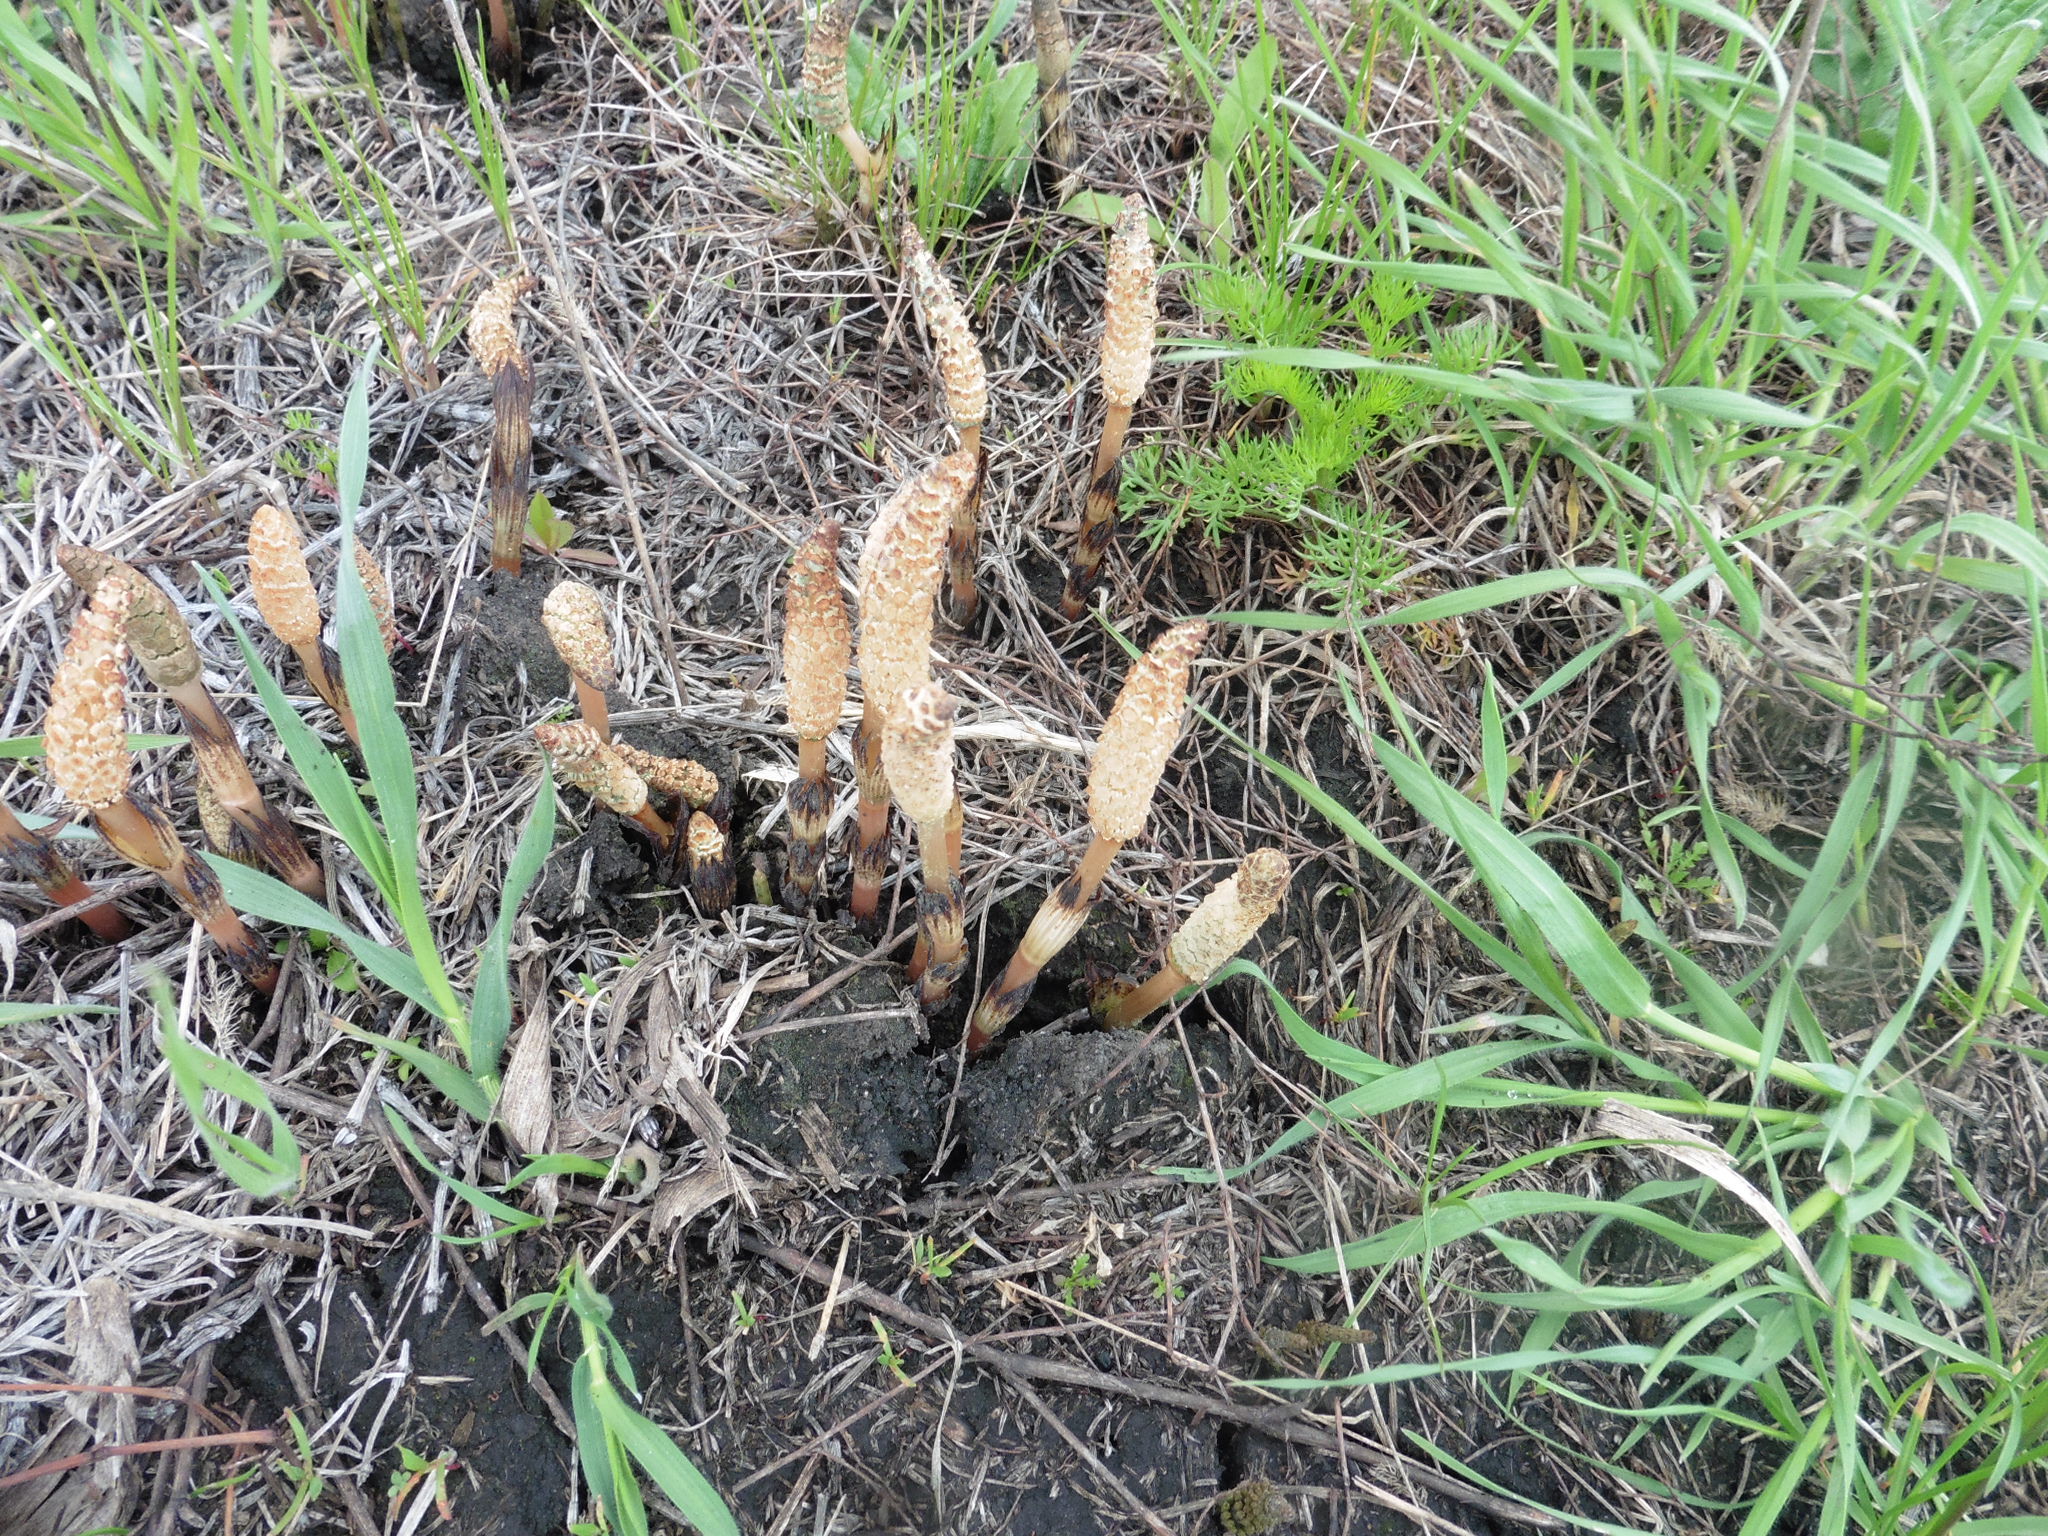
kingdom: Plantae
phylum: Tracheophyta
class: Polypodiopsida
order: Equisetales
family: Equisetaceae
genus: Equisetum
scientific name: Equisetum arvense
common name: Field horsetail
